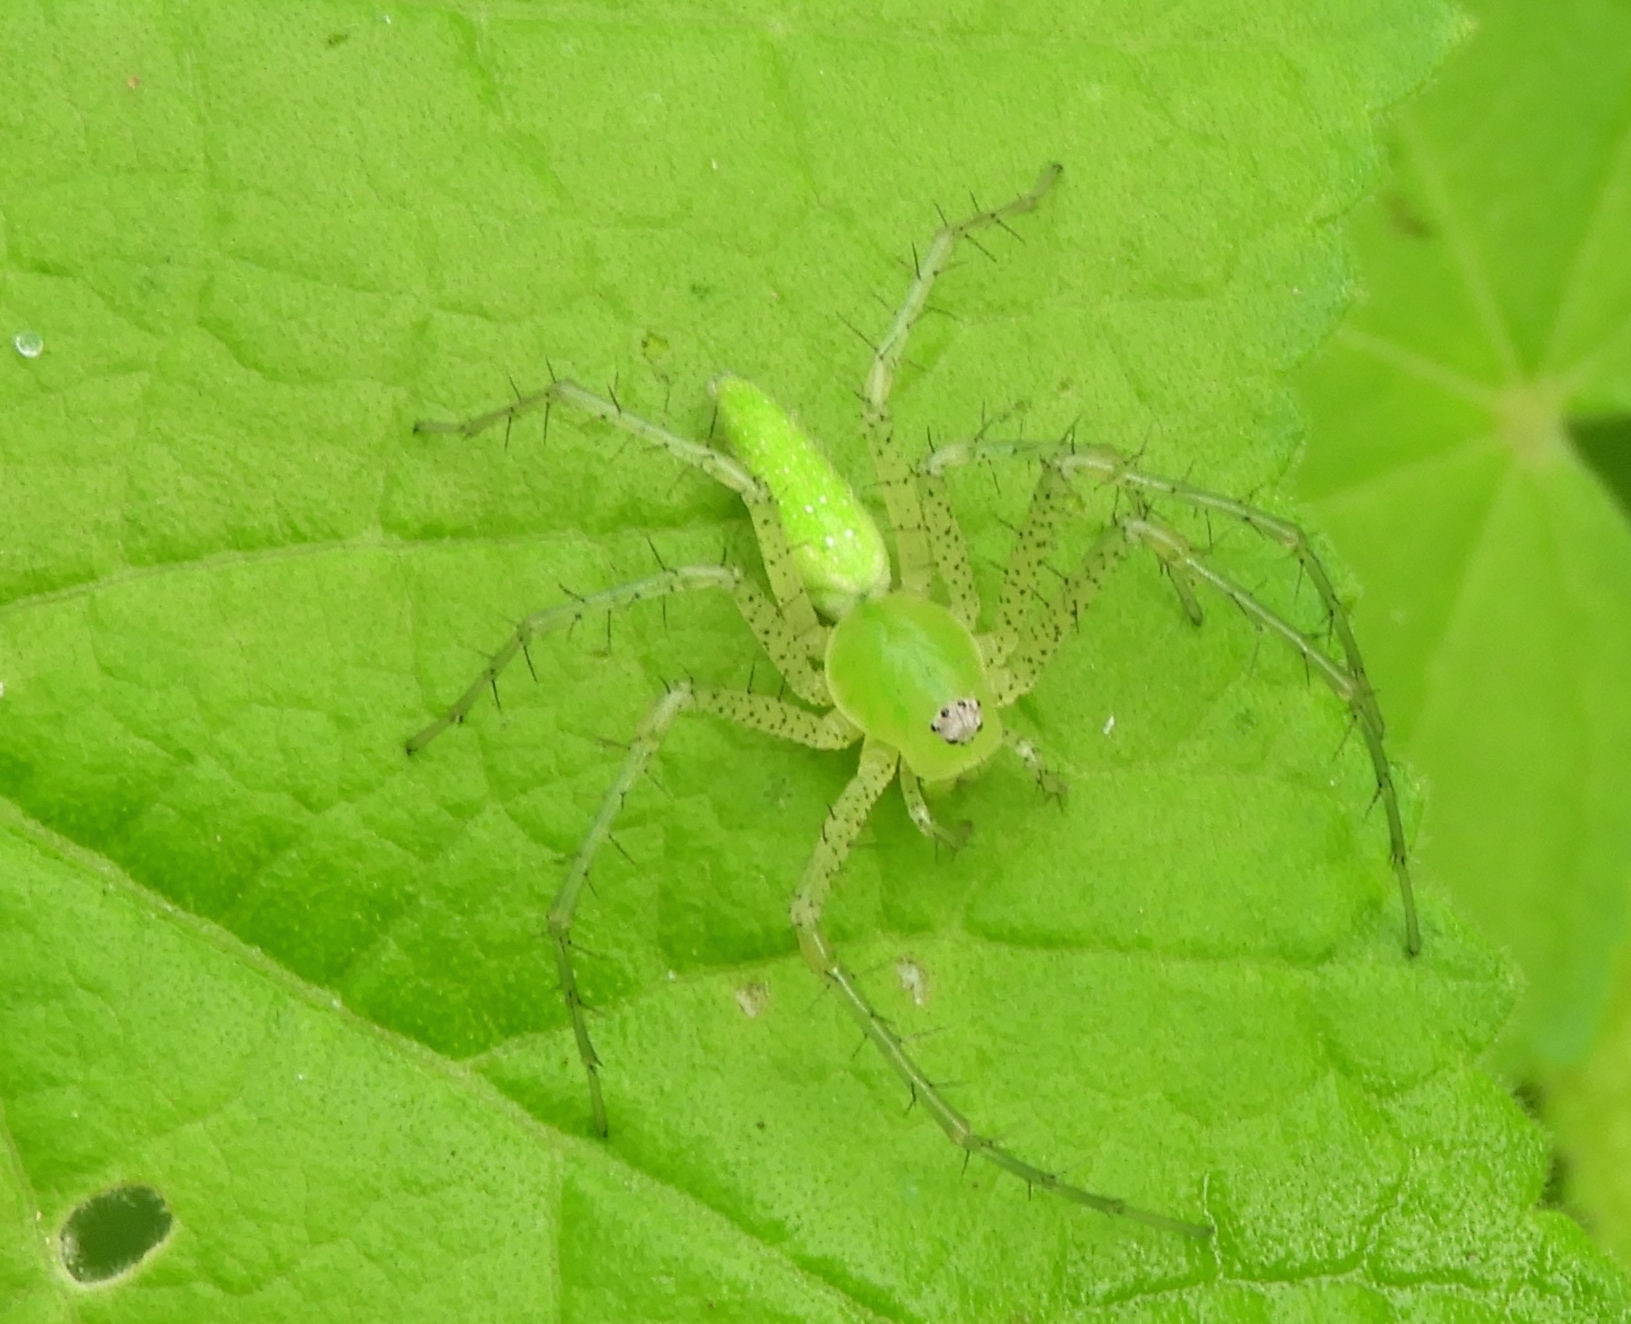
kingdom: Animalia
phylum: Arthropoda
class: Arachnida
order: Araneae
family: Oxyopidae
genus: Peucetia
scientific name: Peucetia
